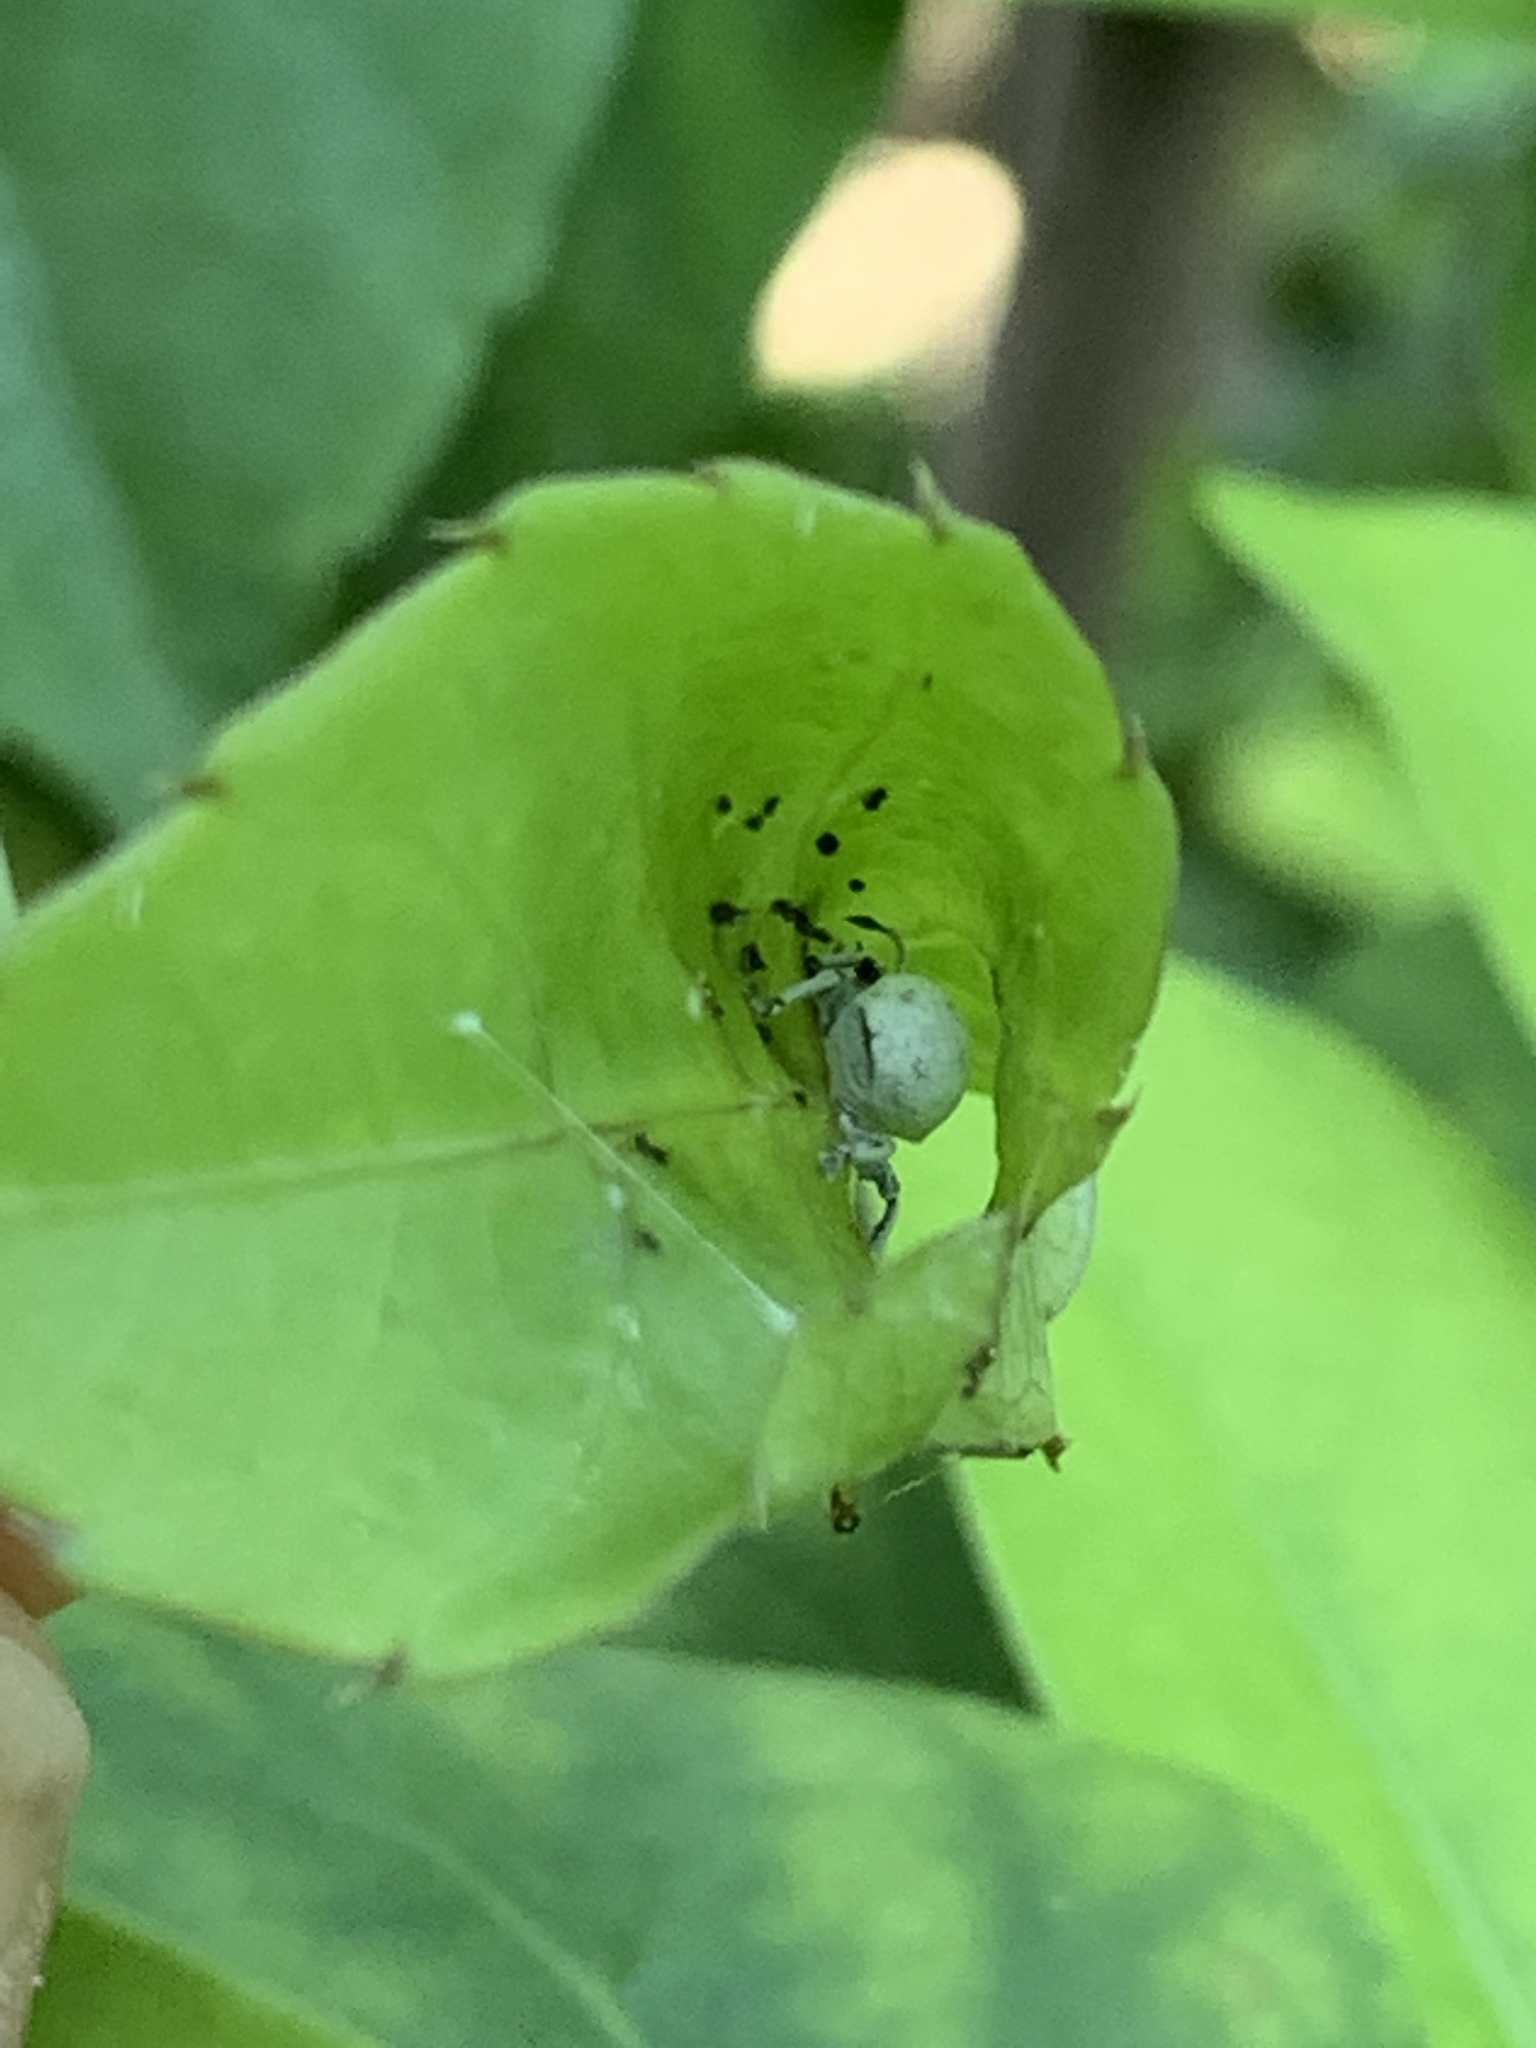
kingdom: Animalia
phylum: Arthropoda
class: Insecta
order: Coleoptera
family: Curculionidae
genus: Myllocerus
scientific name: Myllocerus undecimpustulatus
